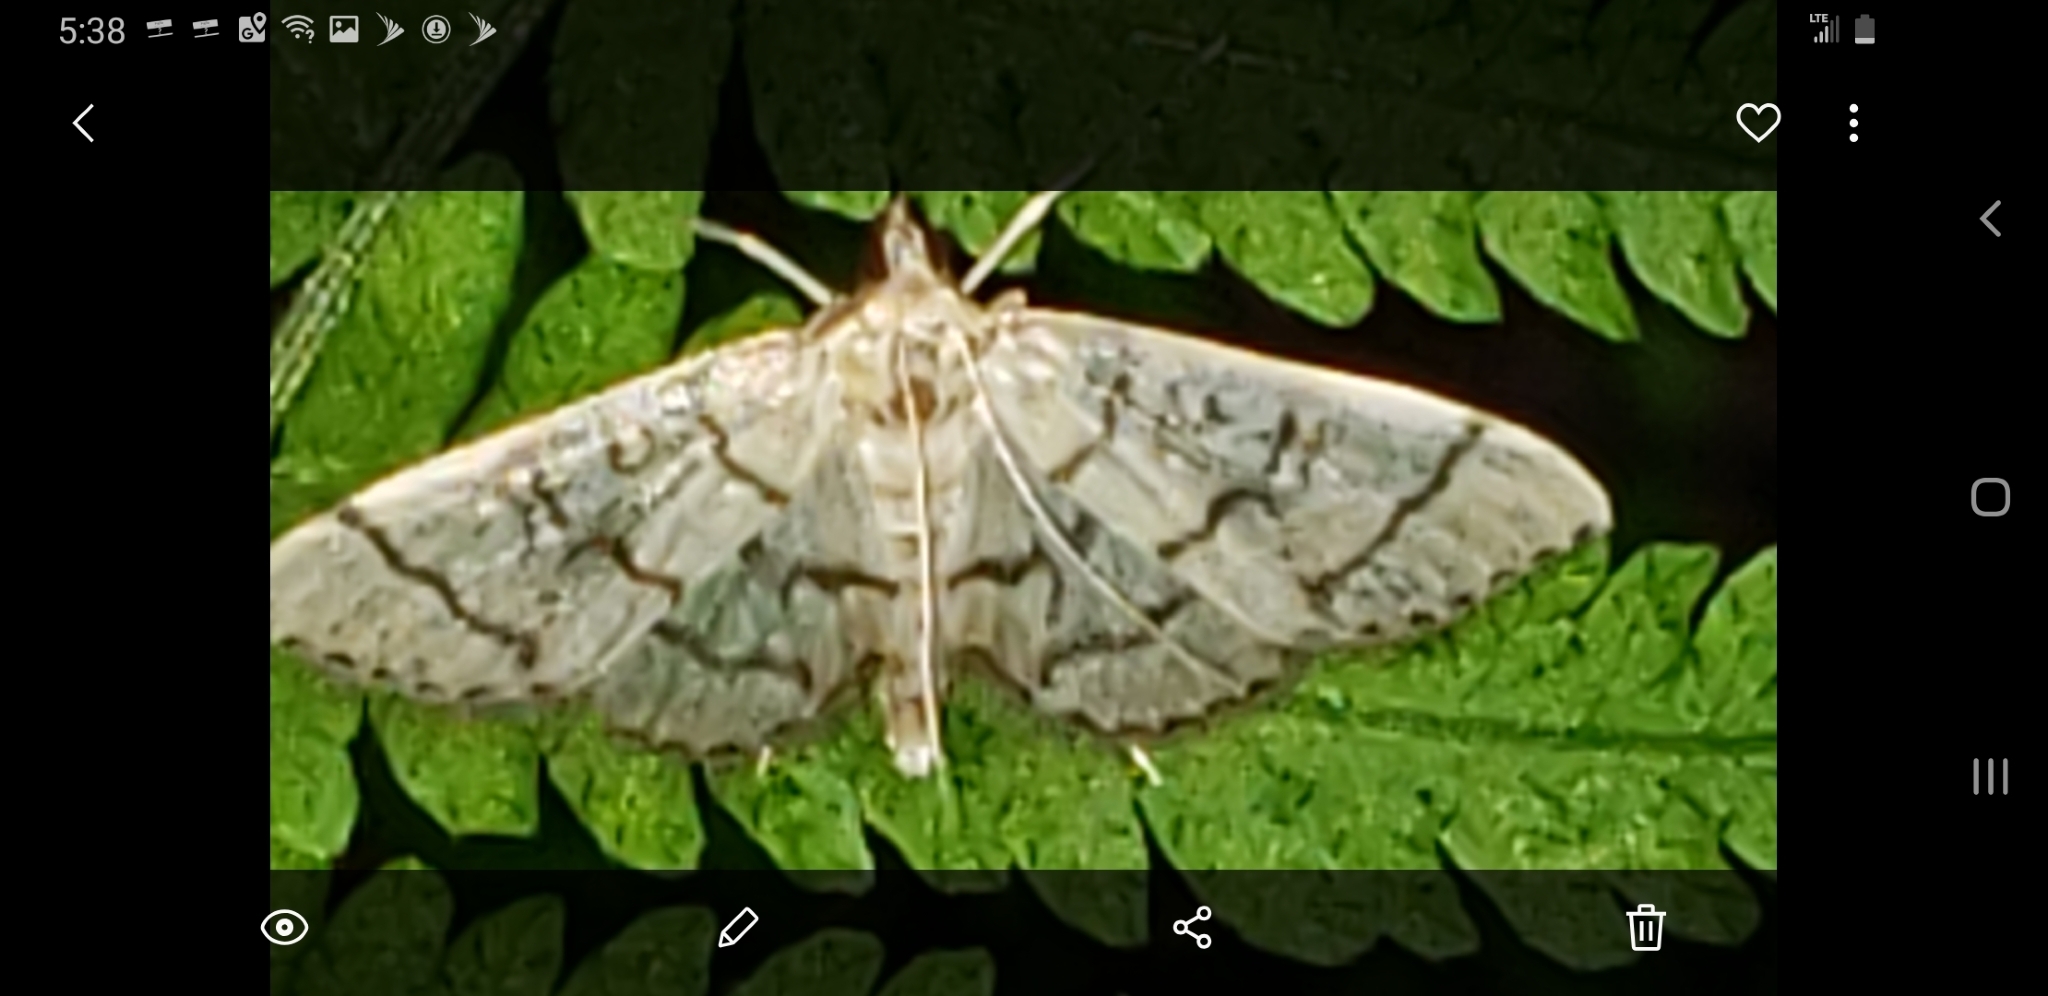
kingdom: Animalia
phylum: Arthropoda
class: Insecta
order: Lepidoptera
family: Crambidae
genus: Lamprosema
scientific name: Lamprosema Blepharomastix ranalis
